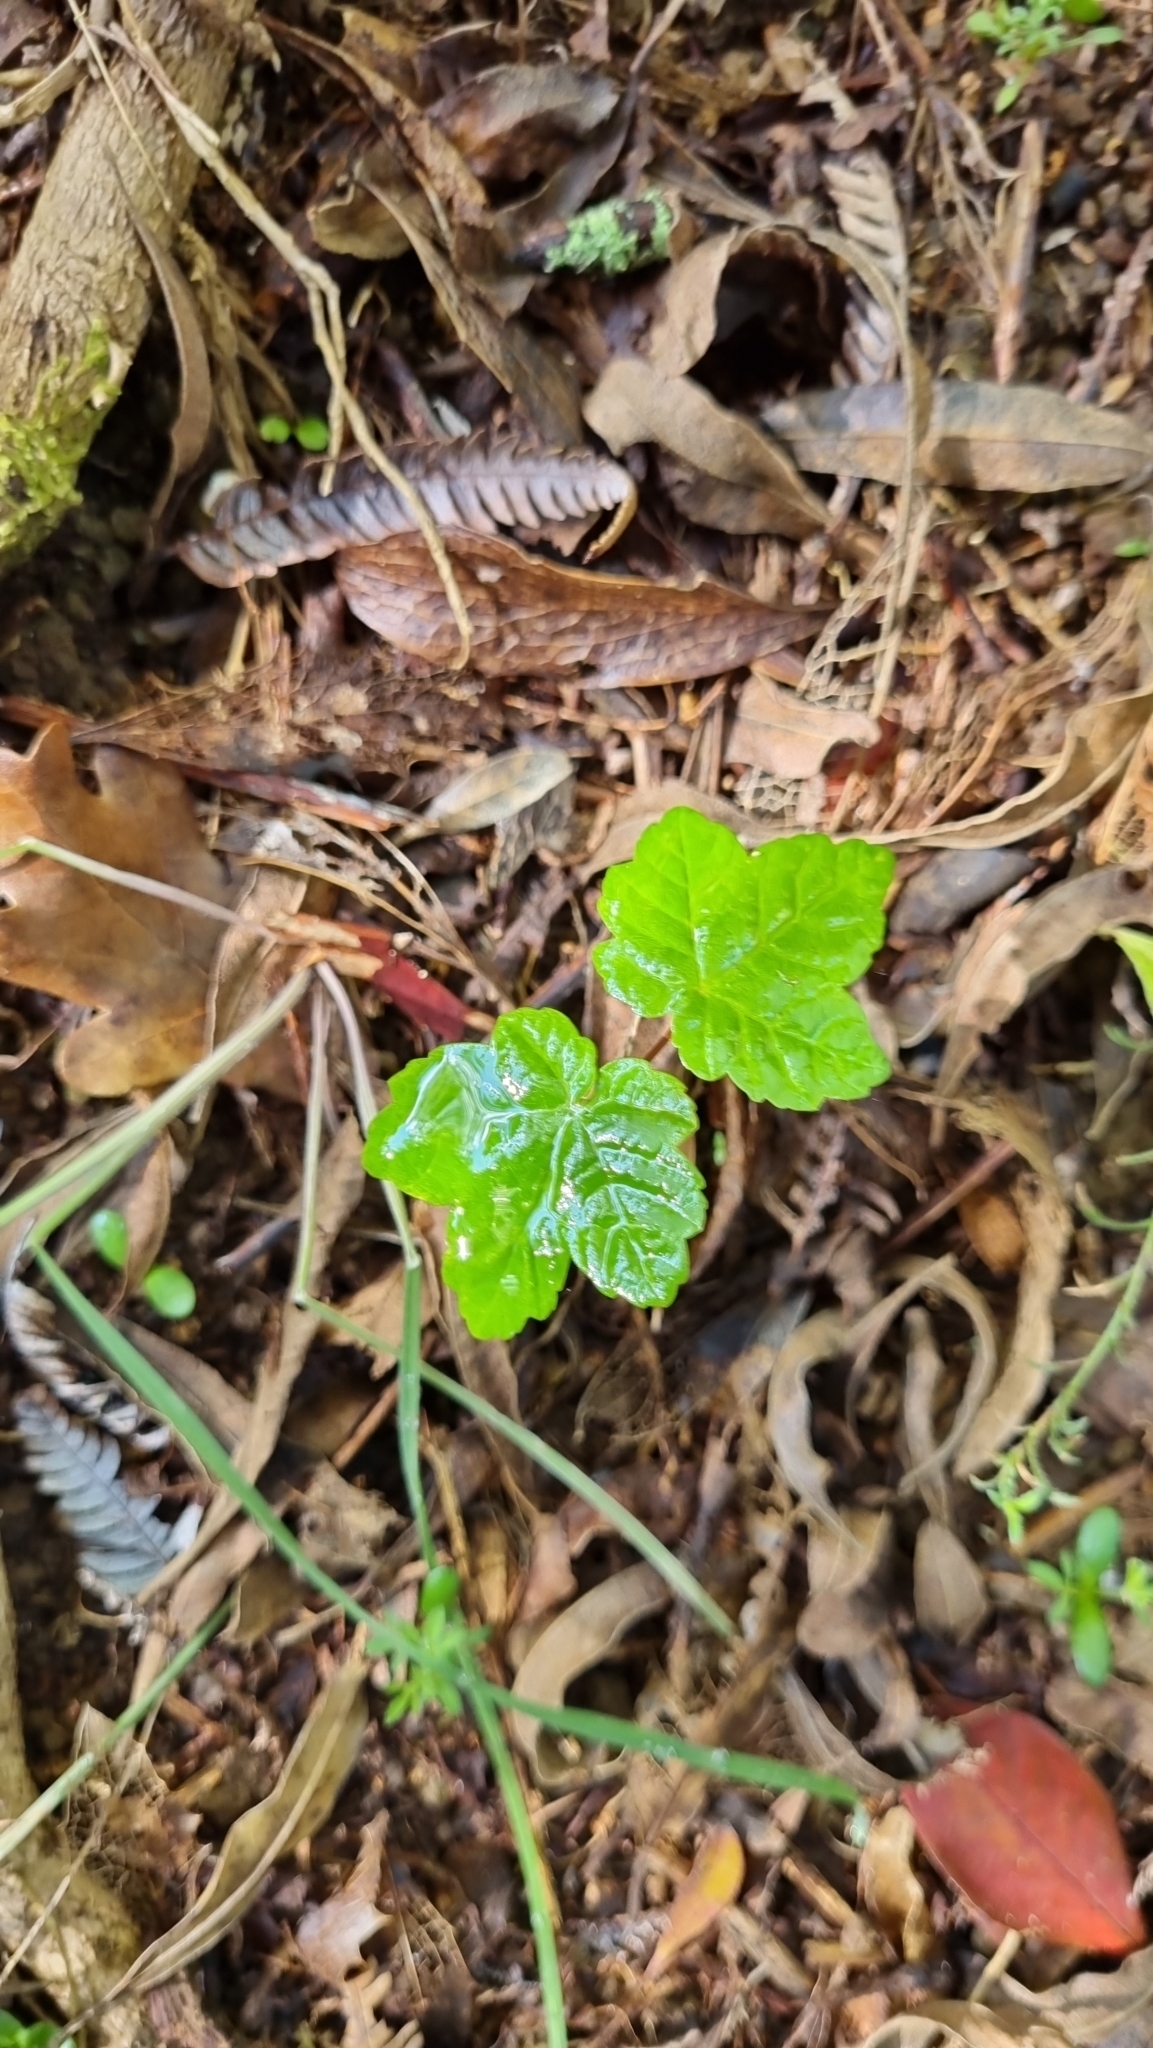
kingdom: Plantae
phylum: Tracheophyta
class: Magnoliopsida
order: Sapindales
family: Sapindaceae
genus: Acer
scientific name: Acer pseudoplatanus
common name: Sycamore
